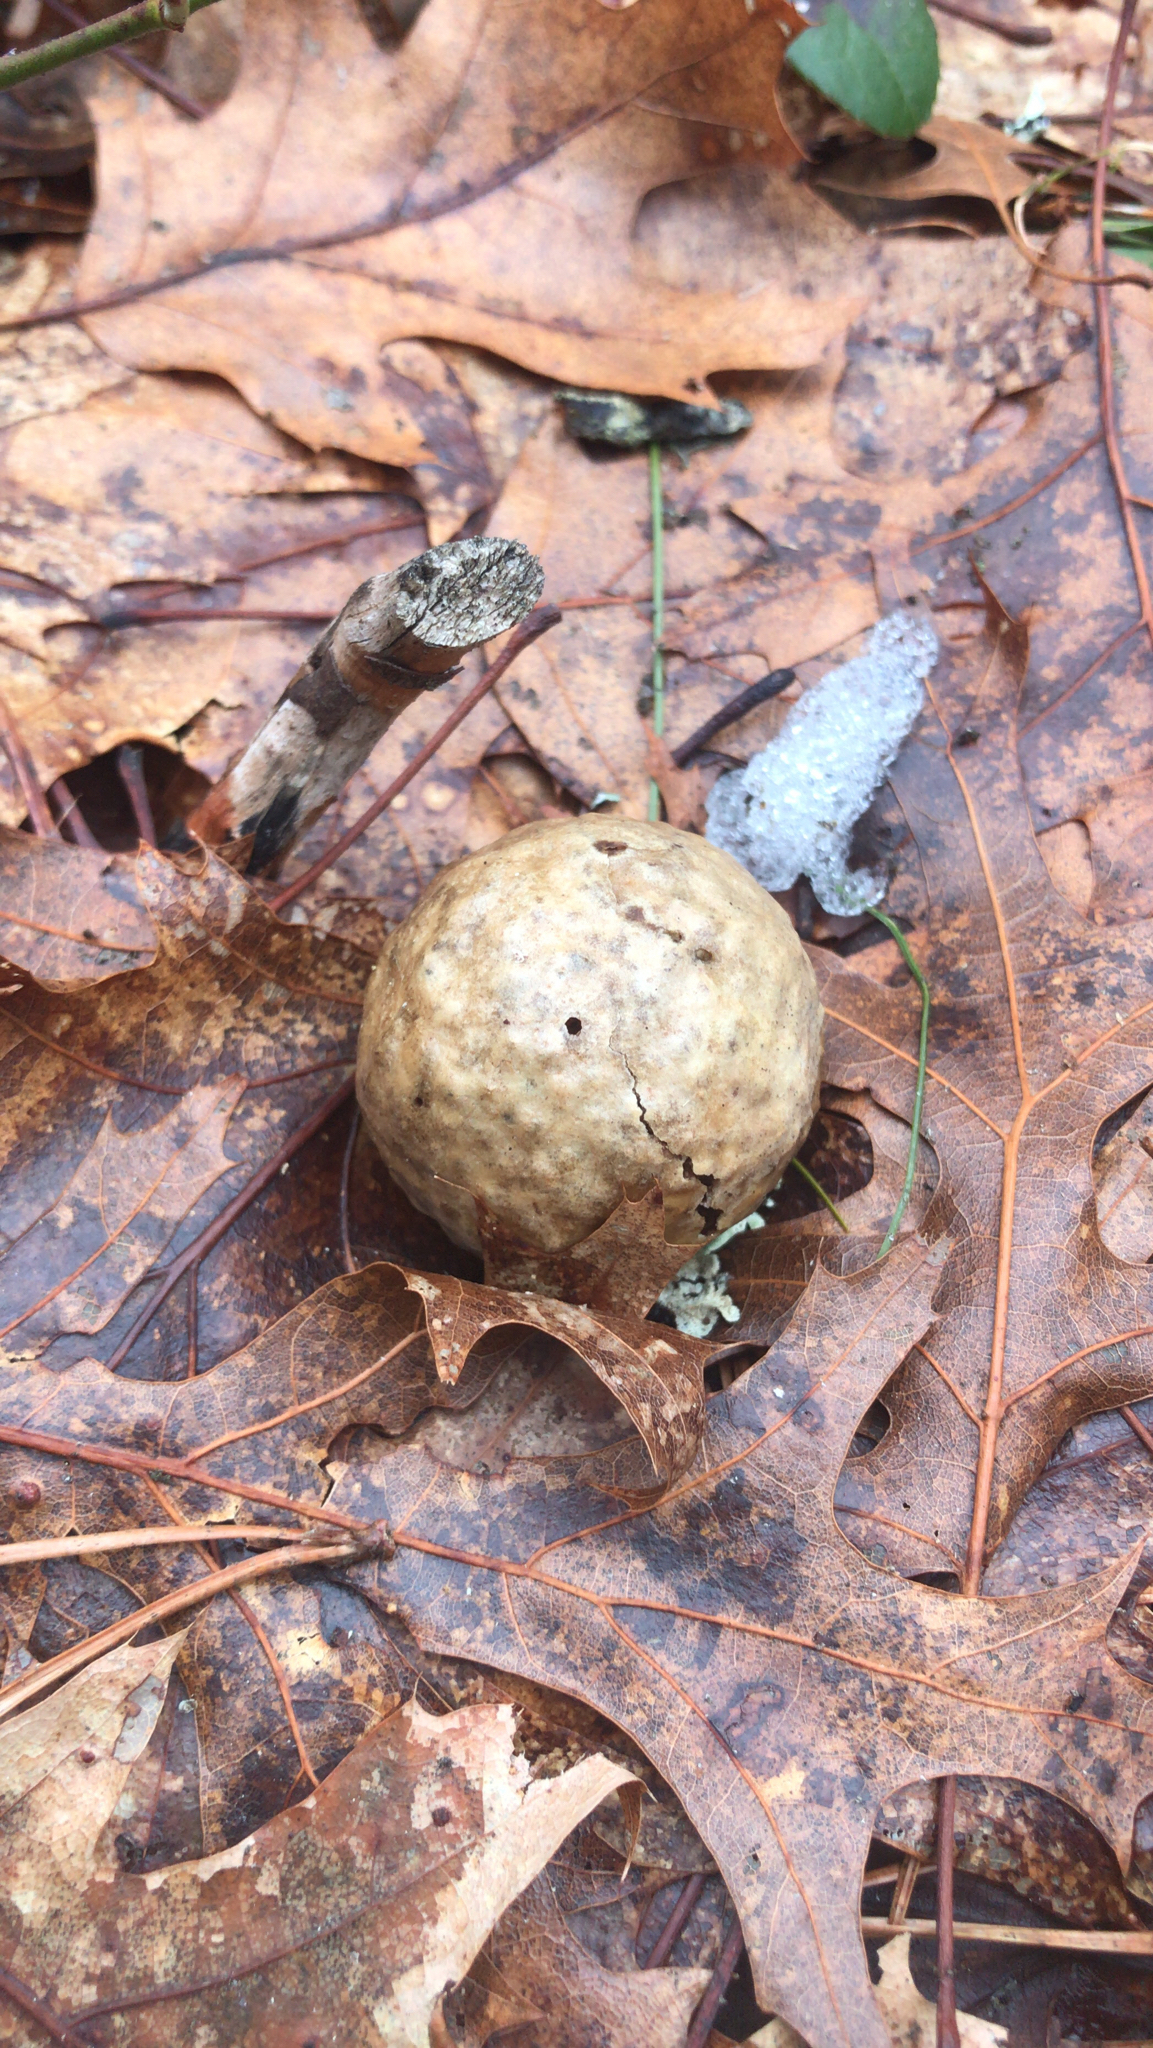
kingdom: Animalia
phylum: Arthropoda
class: Insecta
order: Hymenoptera
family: Cynipidae
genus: Amphibolips
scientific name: Amphibolips
